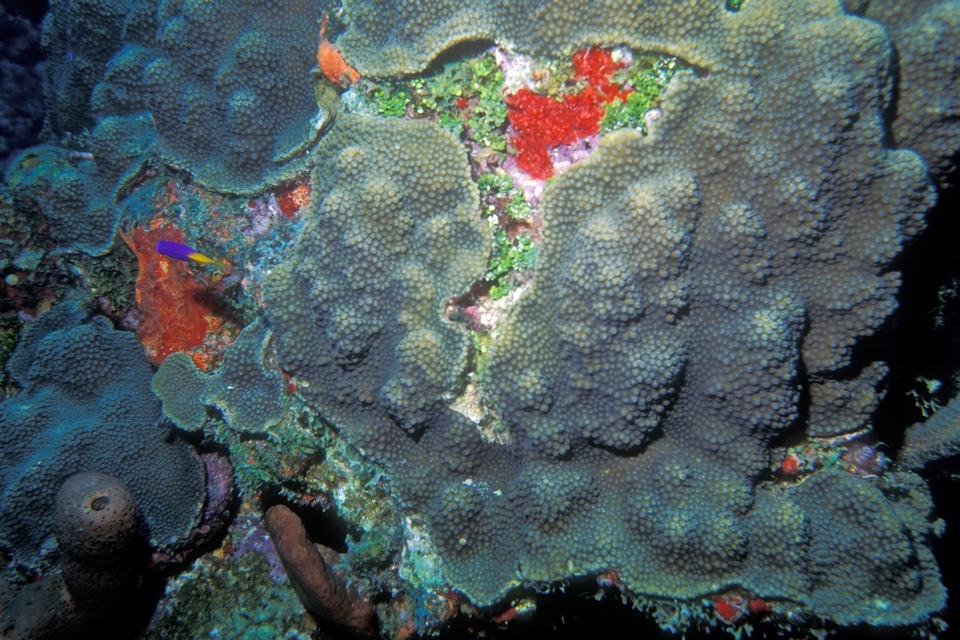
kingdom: Animalia
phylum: Cnidaria
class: Anthozoa
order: Scleractinia
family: Merulinidae
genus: Orbicella
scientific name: Orbicella faveolata
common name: Mountainous star coral
